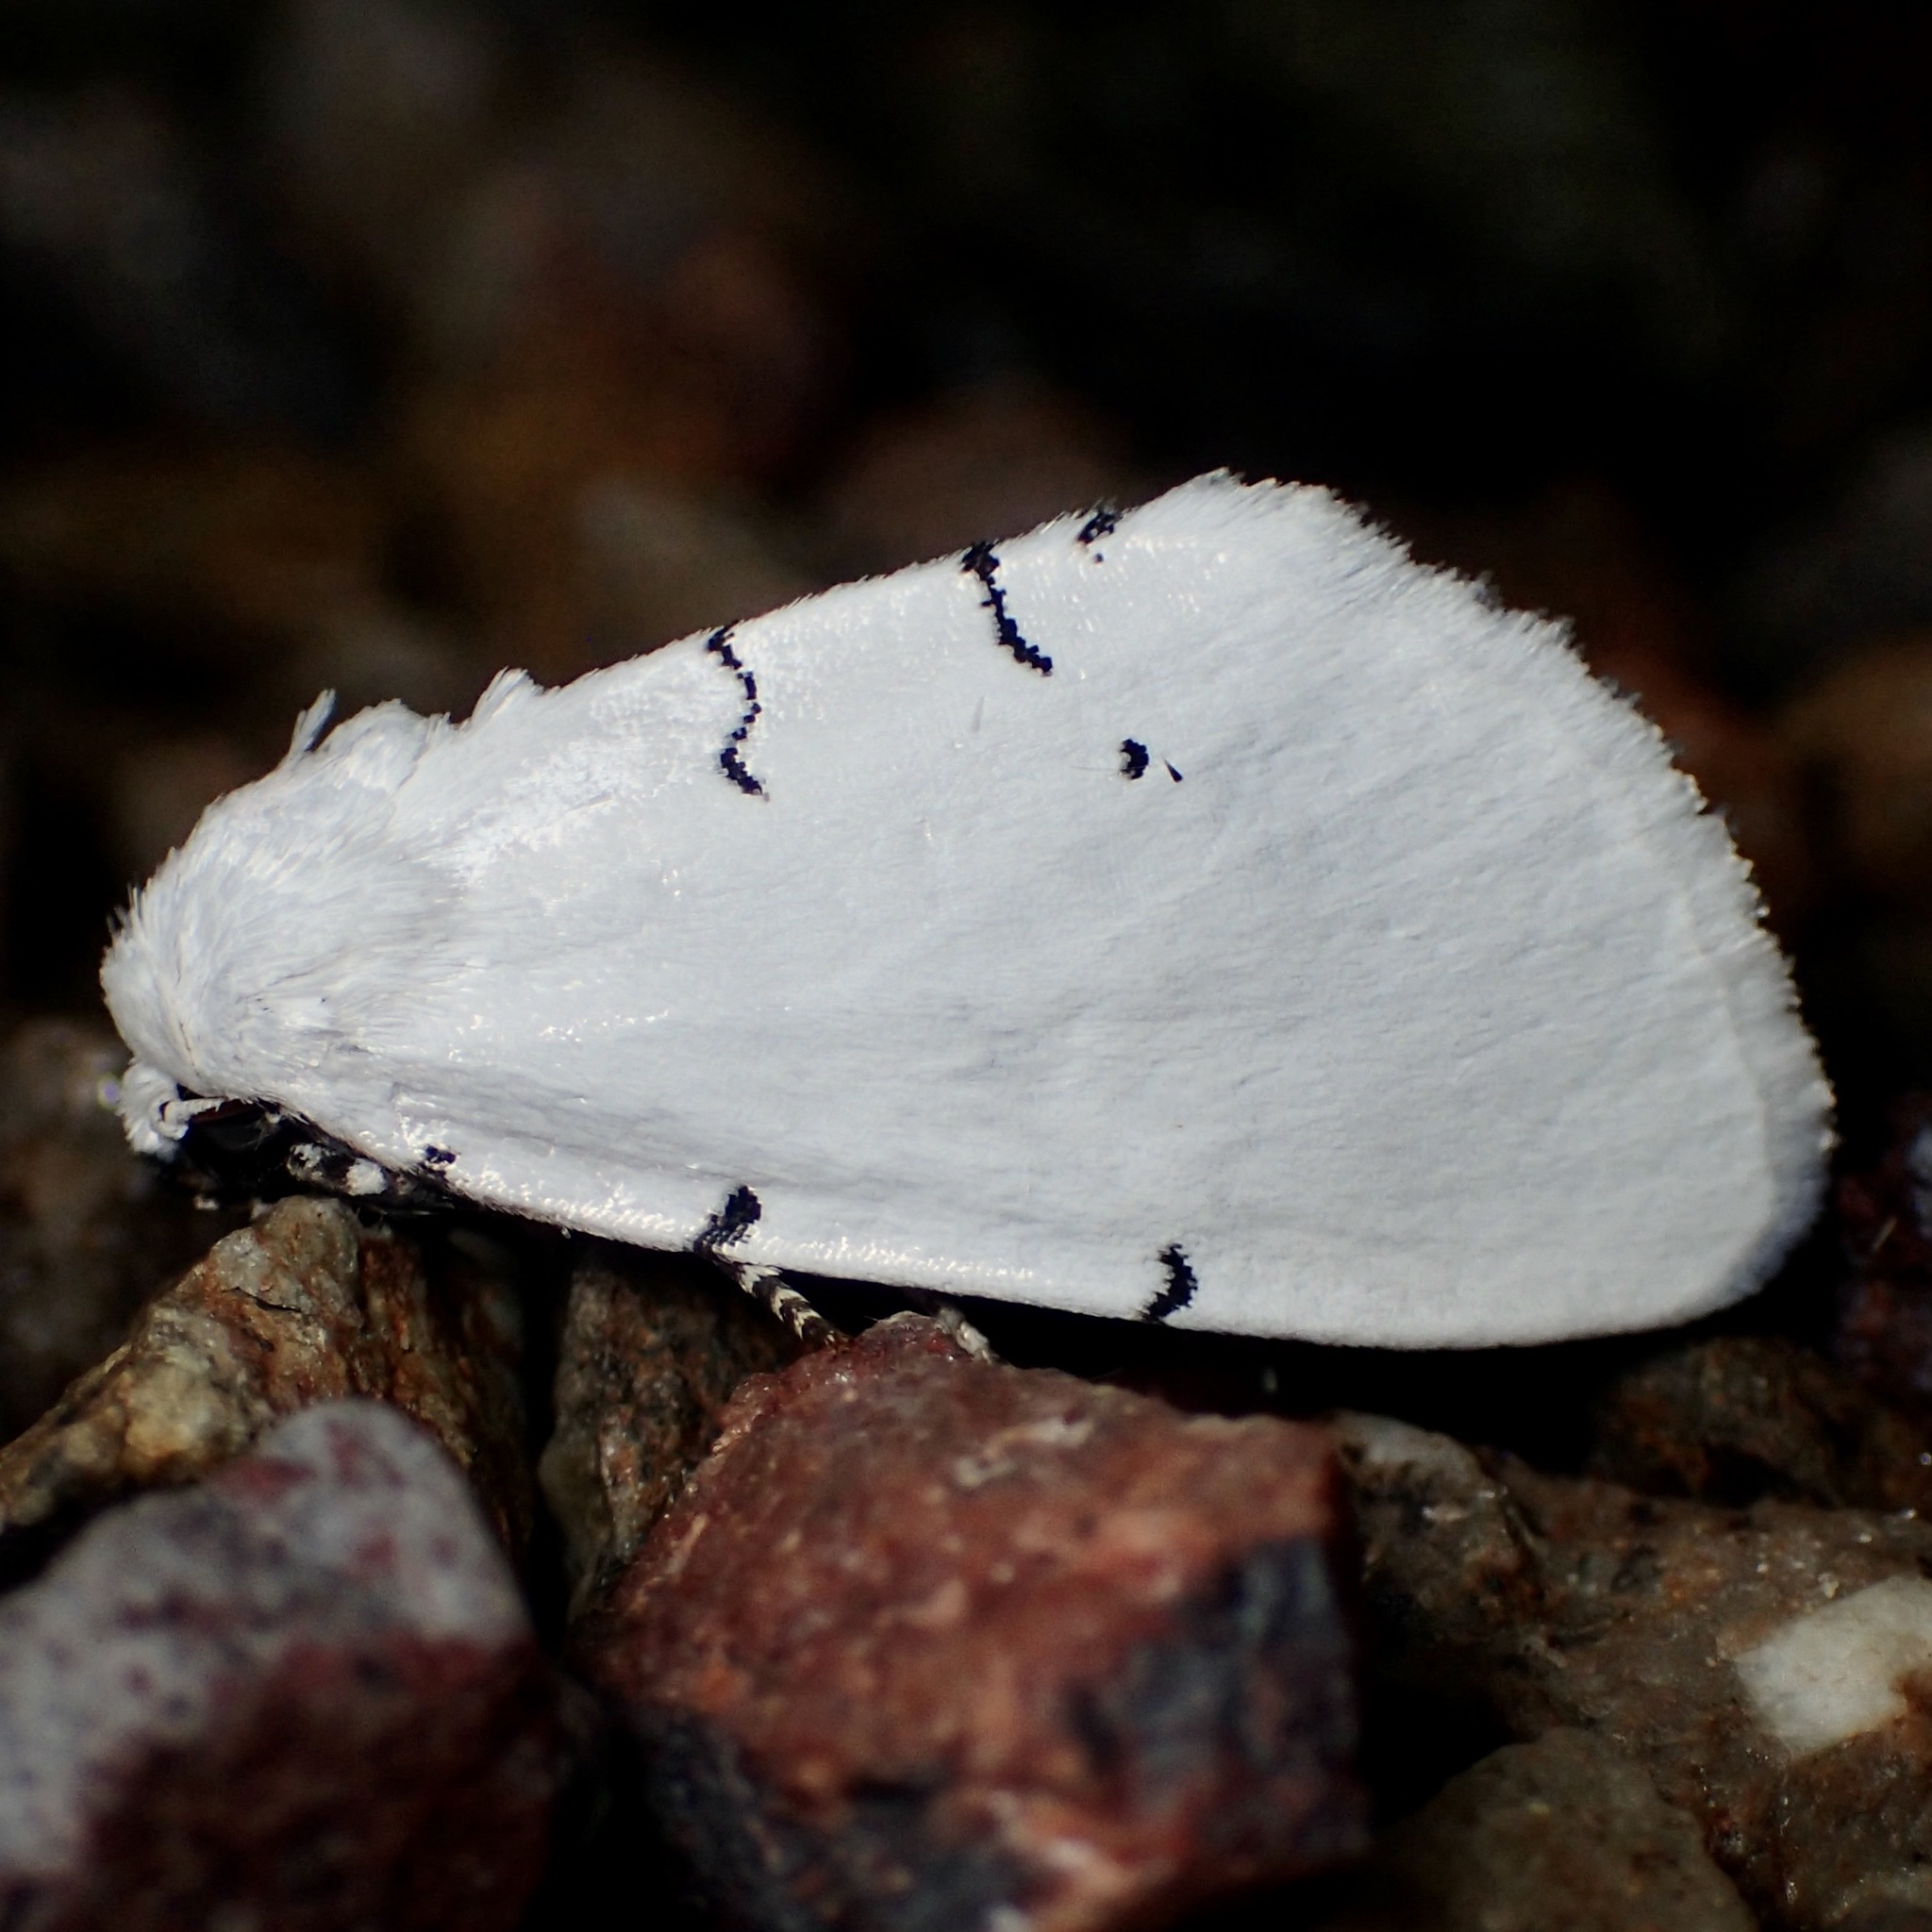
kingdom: Animalia
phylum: Arthropoda
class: Insecta
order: Lepidoptera
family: Noctuidae
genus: Hemioslaria
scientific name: Hemioslaria pima
